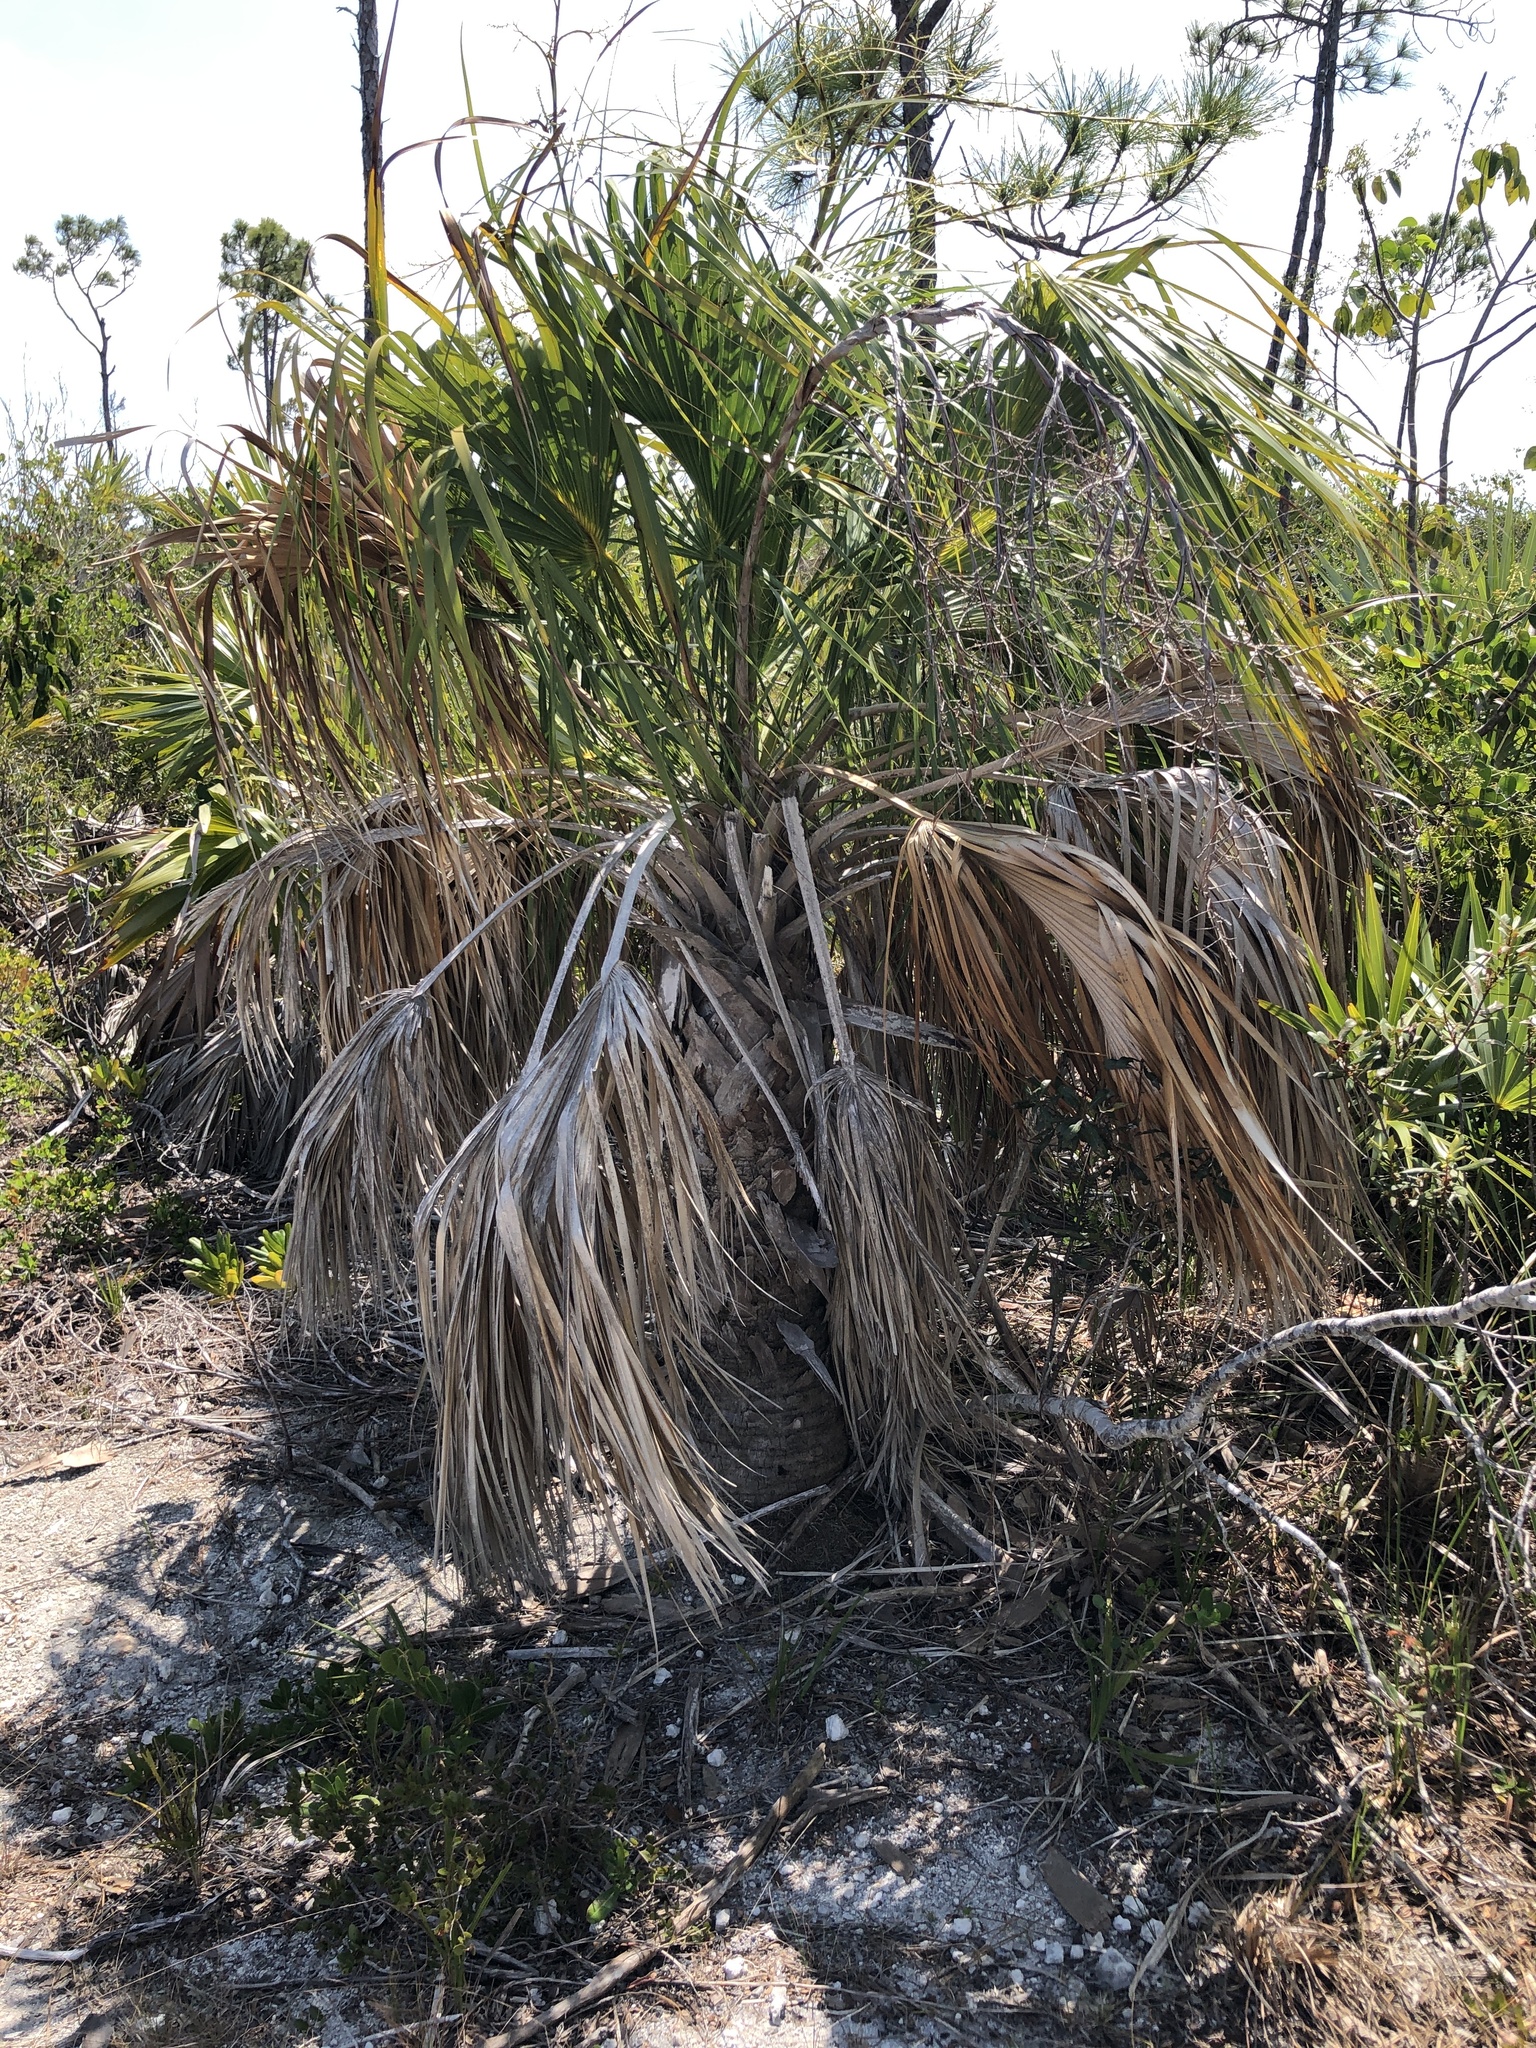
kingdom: Plantae
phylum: Tracheophyta
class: Liliopsida
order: Arecales
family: Arecaceae
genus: Sabal
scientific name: Sabal palmetto
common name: Blue palmetto
